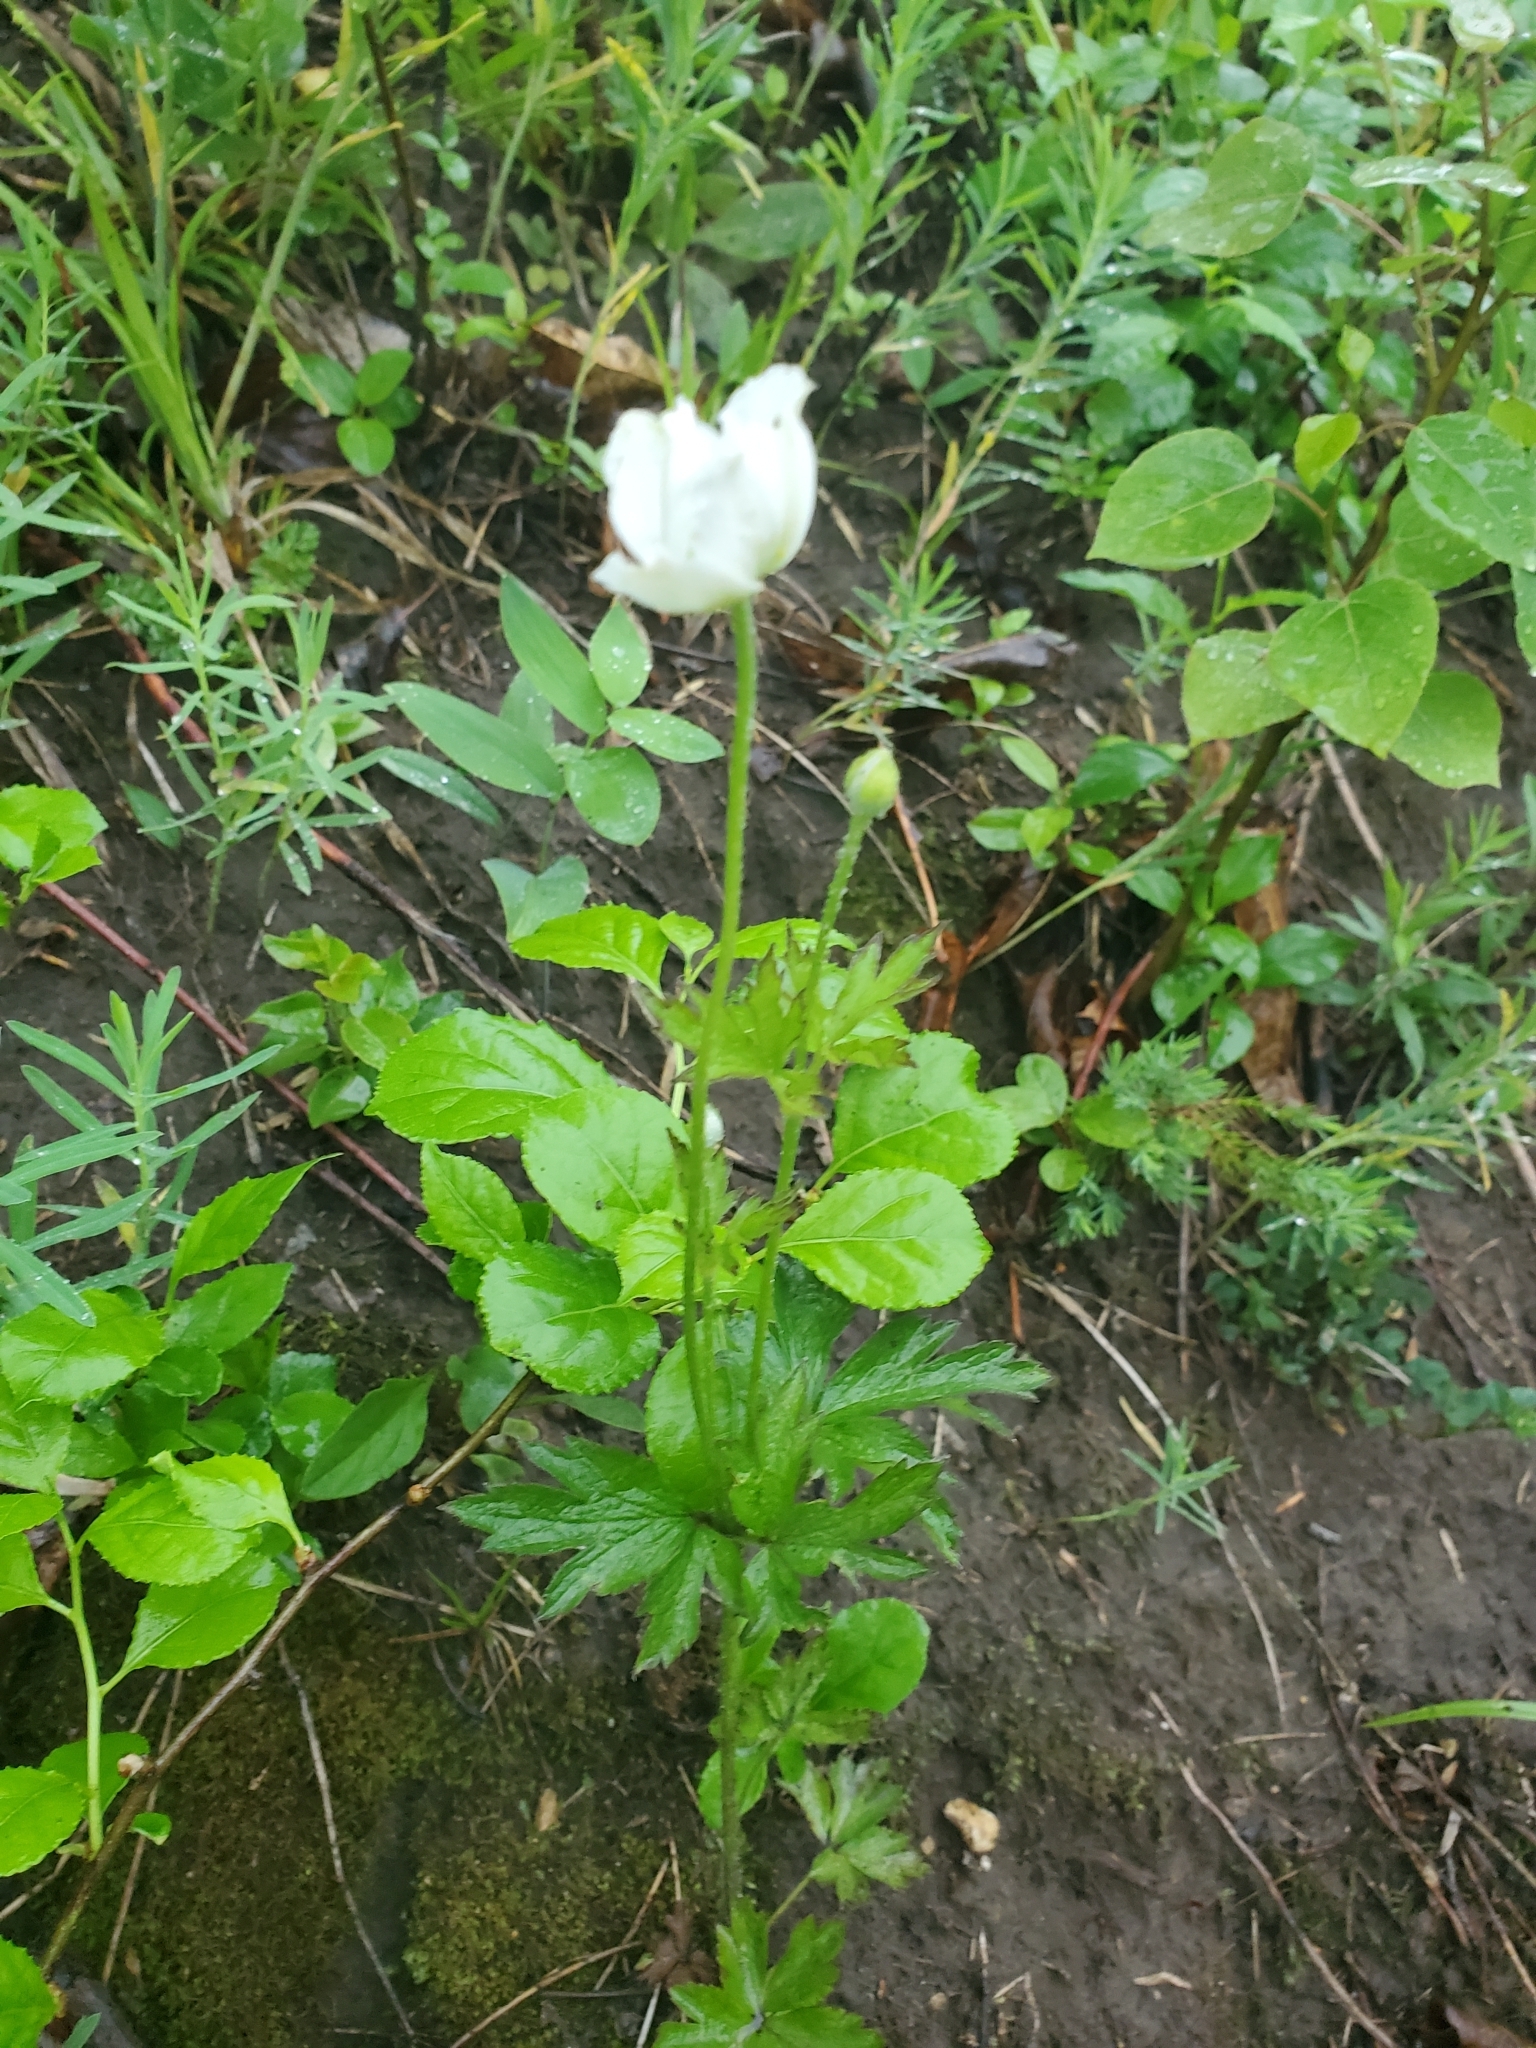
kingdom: Plantae
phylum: Tracheophyta
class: Magnoliopsida
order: Ranunculales
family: Ranunculaceae
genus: Anemone
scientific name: Anemone cylindrica
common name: Candle anemone
